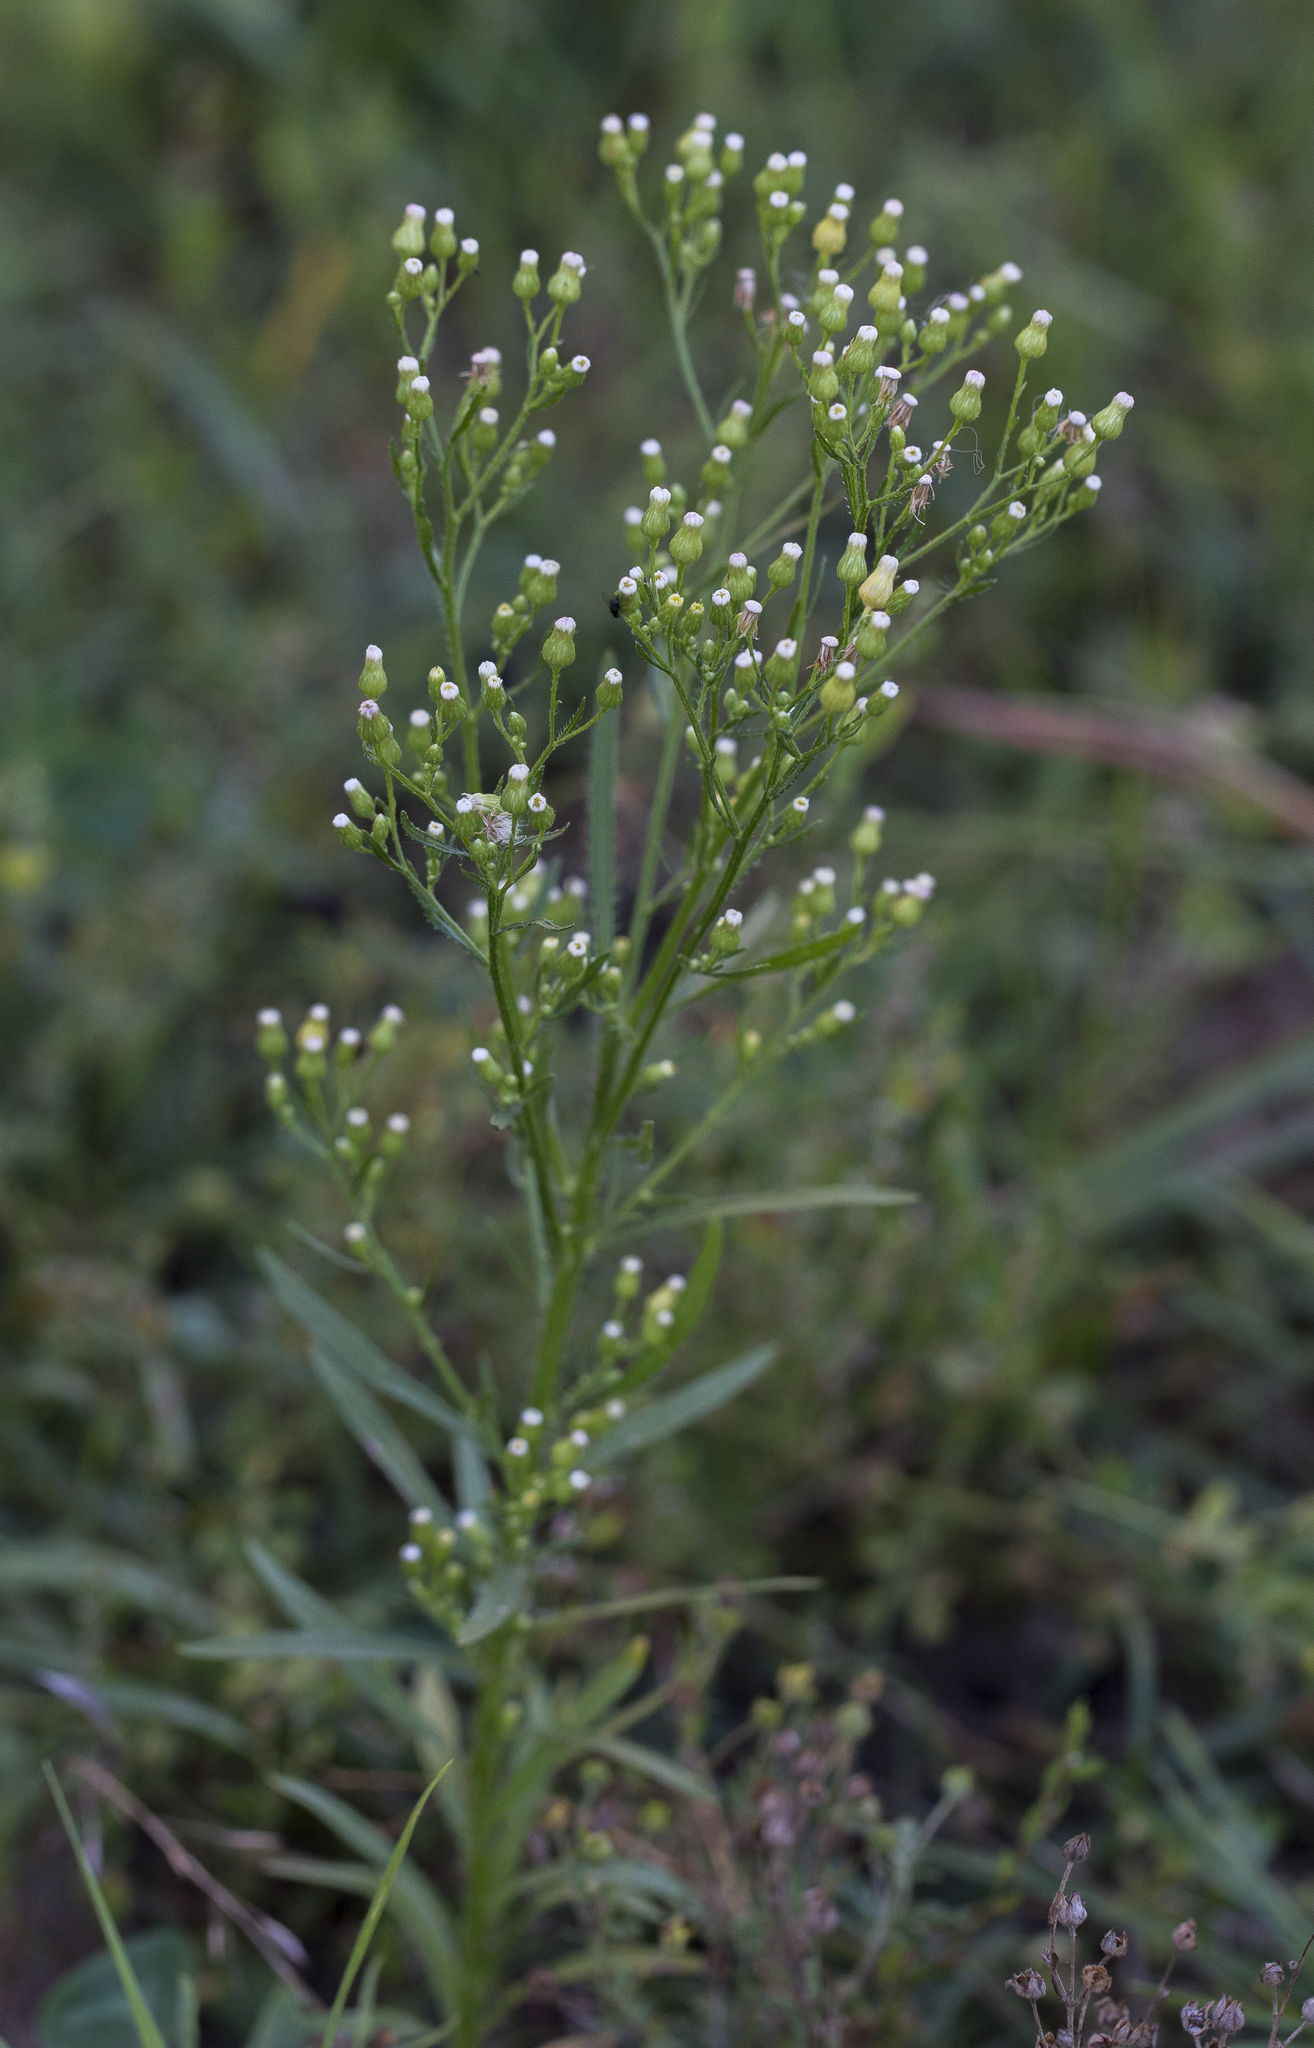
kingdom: Plantae
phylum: Tracheophyta
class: Magnoliopsida
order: Asterales
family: Asteraceae
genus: Erigeron
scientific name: Erigeron canadensis
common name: Canadian fleabane
